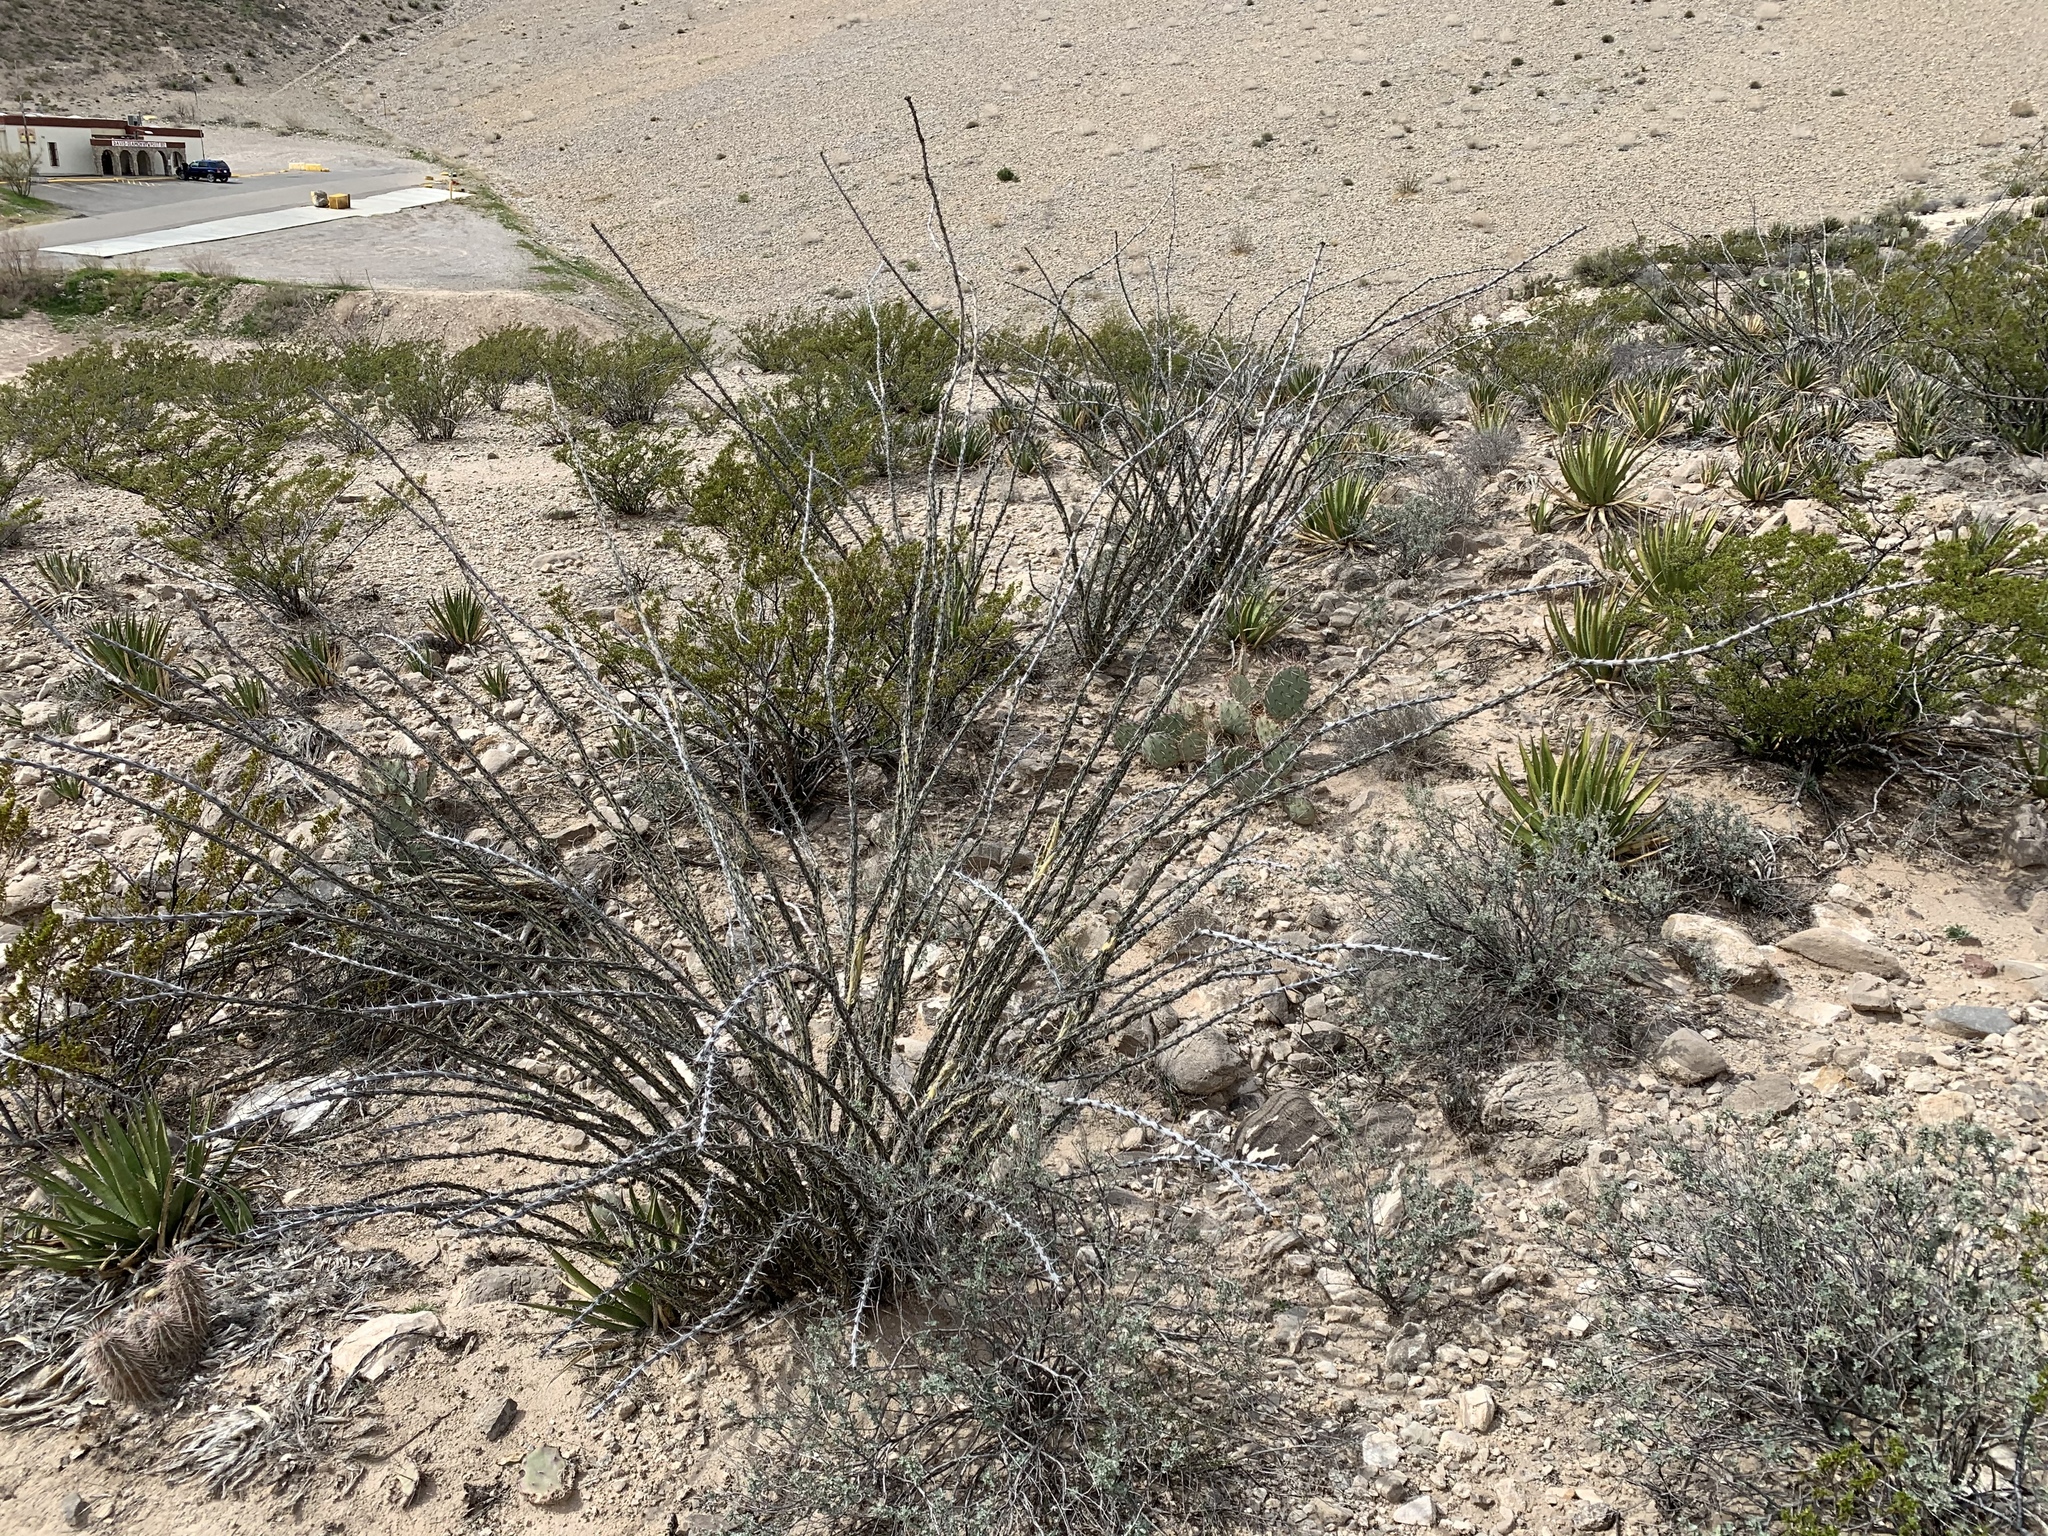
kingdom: Plantae
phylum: Tracheophyta
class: Magnoliopsida
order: Ericales
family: Fouquieriaceae
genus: Fouquieria
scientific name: Fouquieria splendens
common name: Vine-cactus
